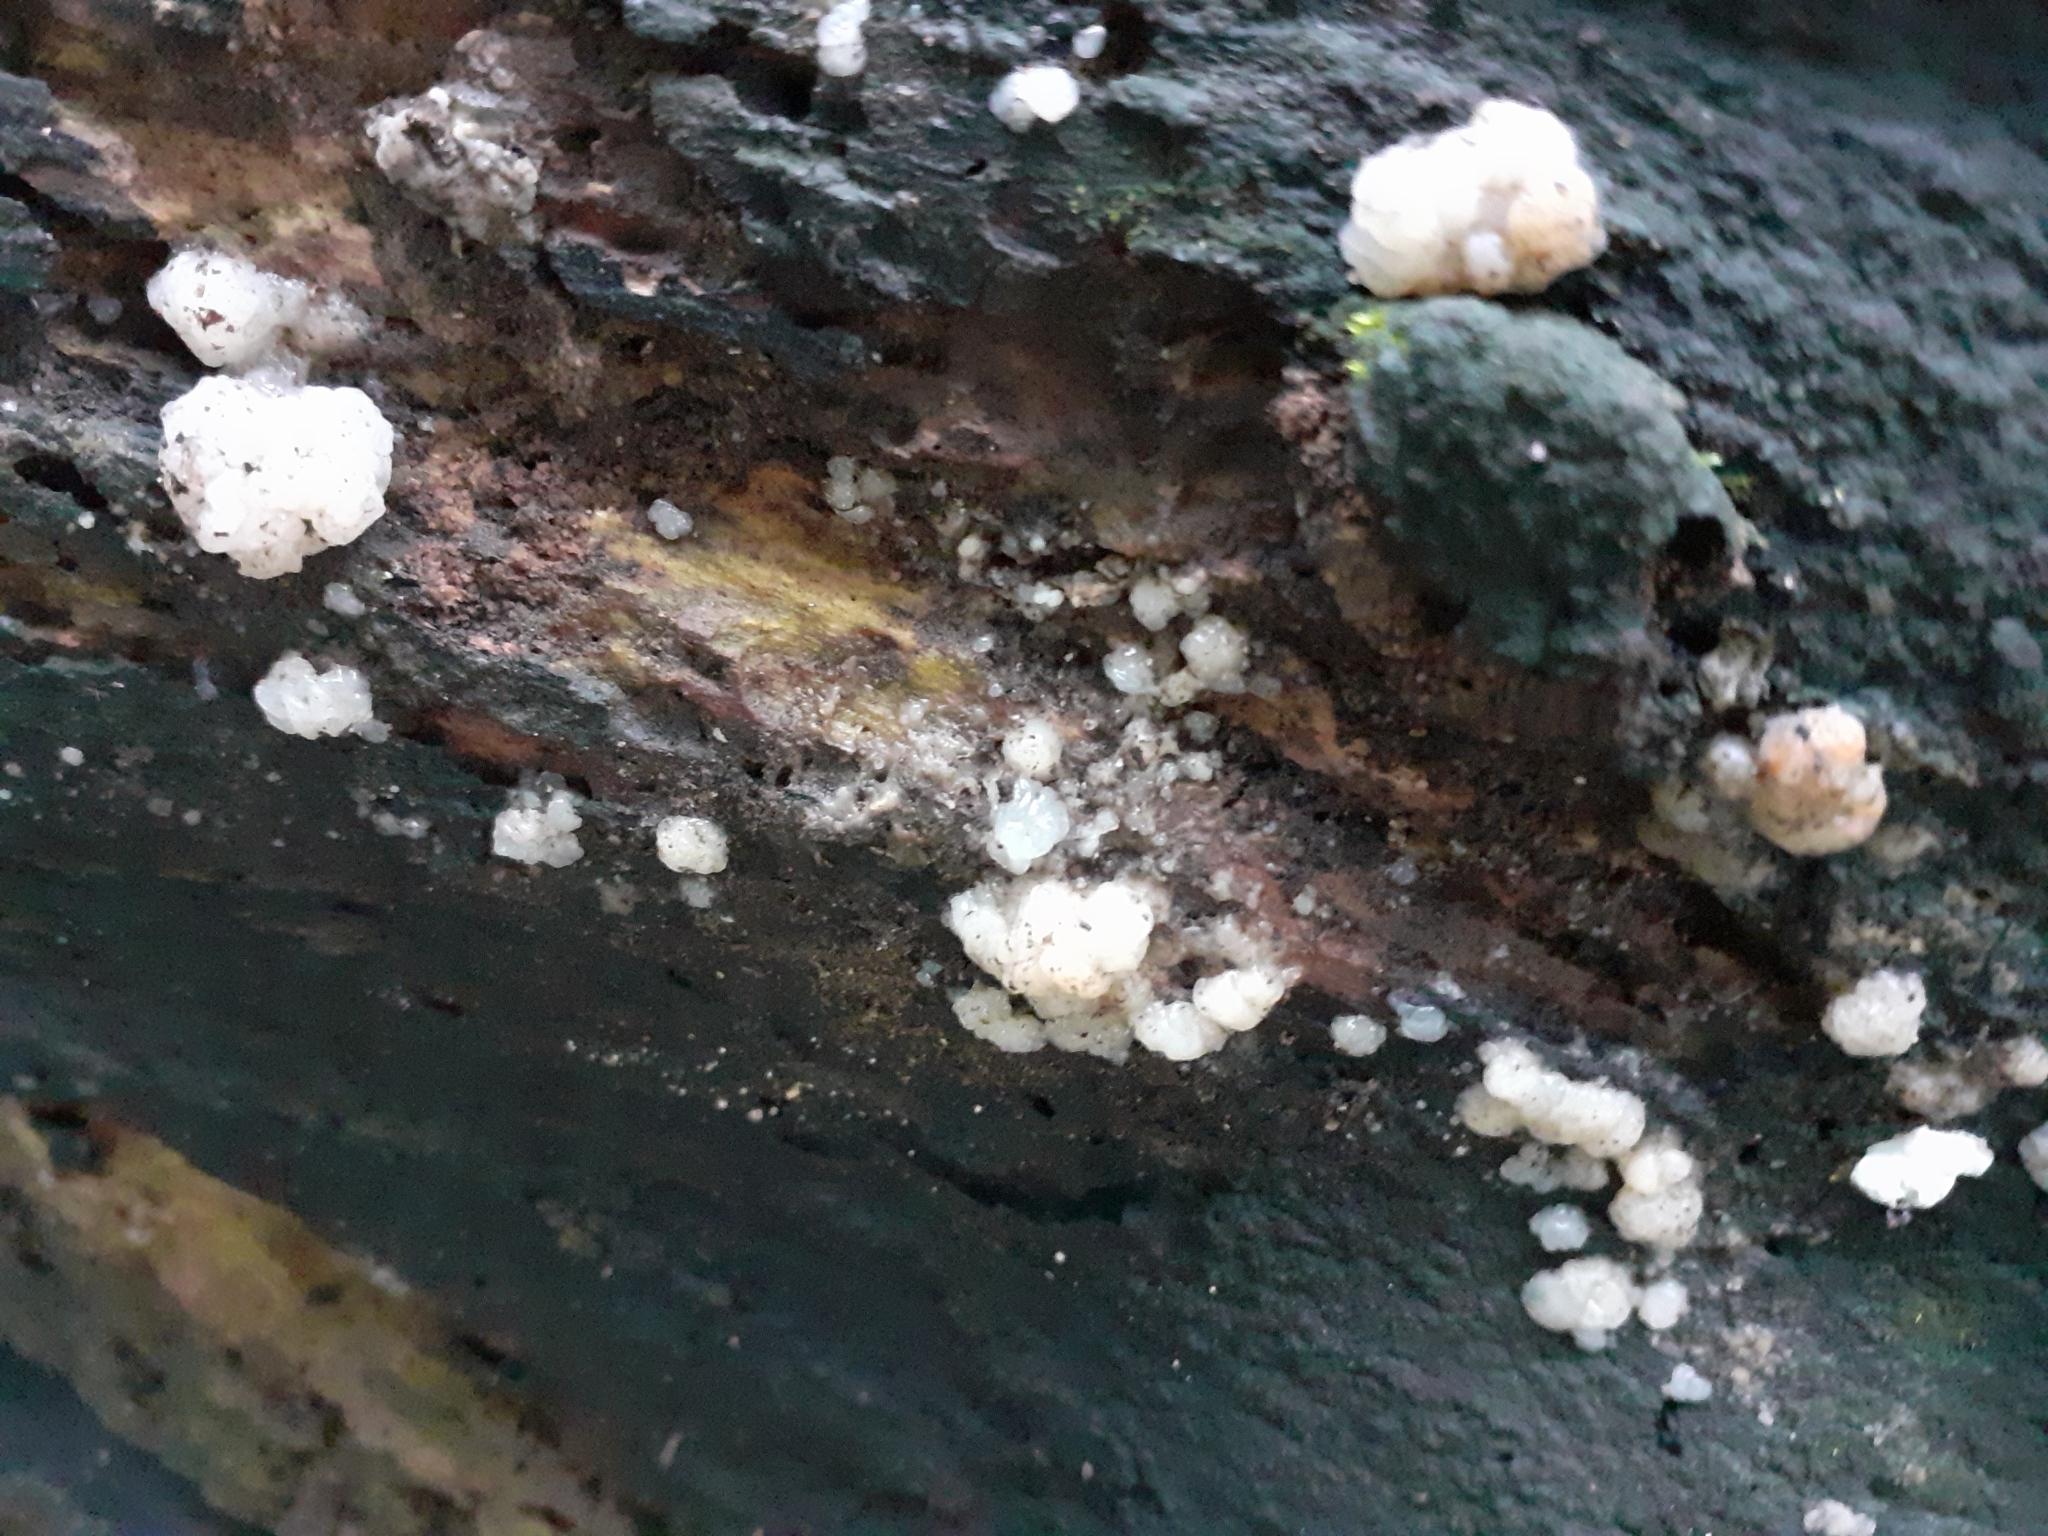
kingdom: Fungi
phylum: Basidiomycota
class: Agaricomycetes
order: Auriculariales
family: Hyaloriaceae
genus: Myxarium
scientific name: Myxarium nucleatum
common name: Crystal brain fungus
